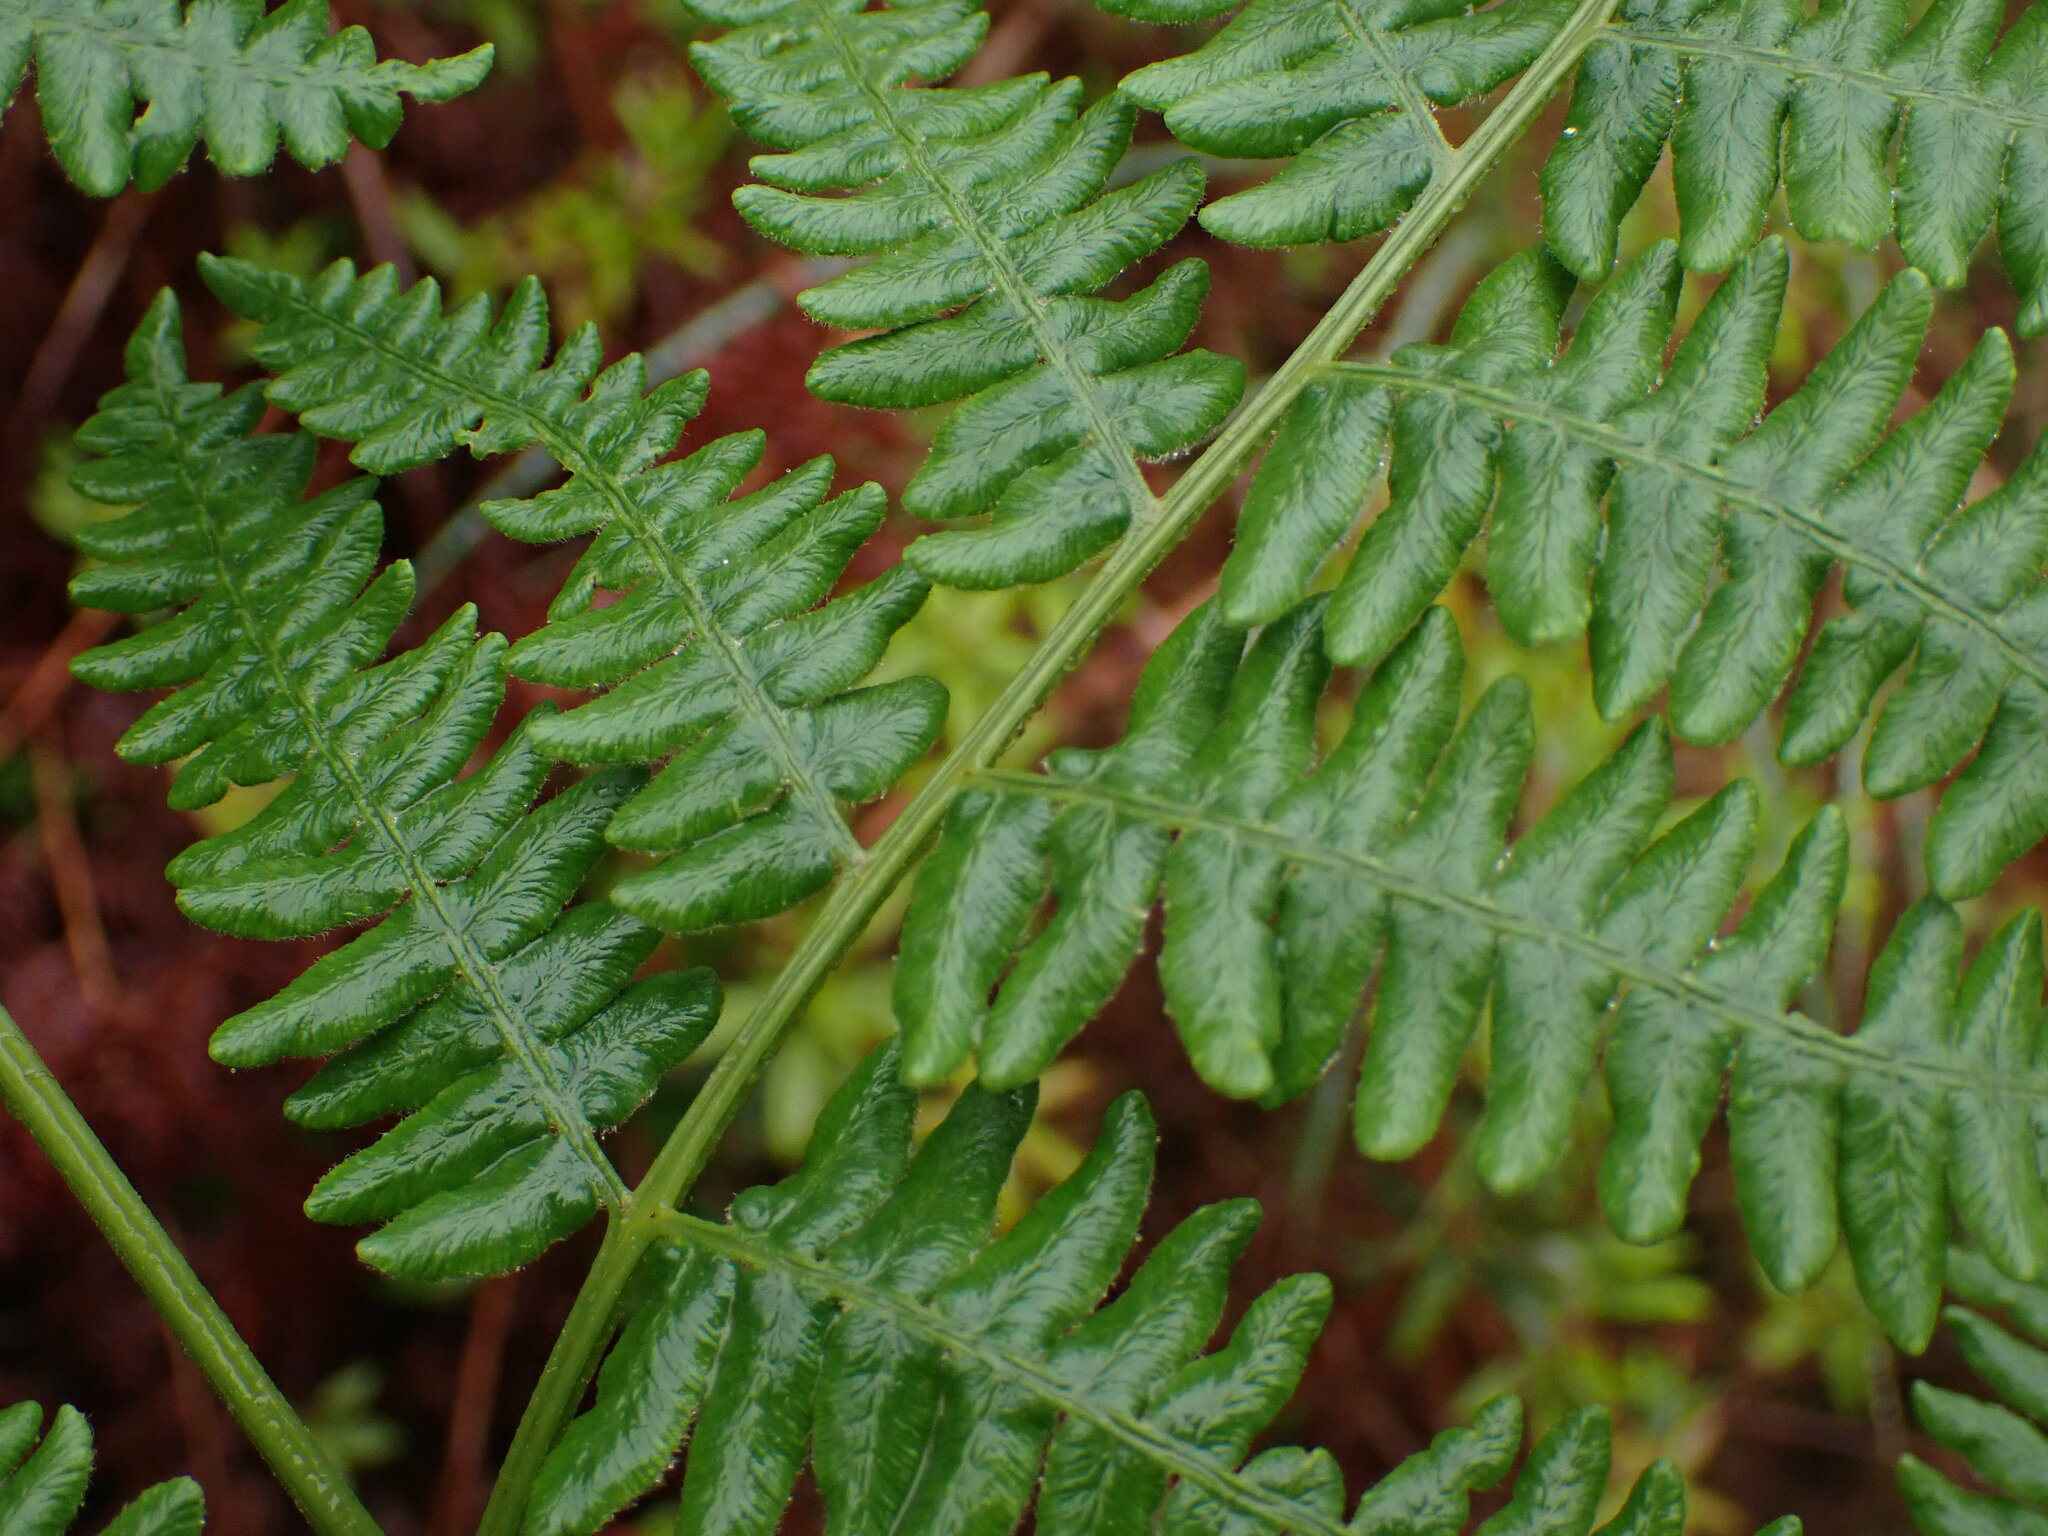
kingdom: Plantae
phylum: Tracheophyta
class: Polypodiopsida
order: Polypodiales
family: Dennstaedtiaceae
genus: Pteridium
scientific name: Pteridium aquilinum
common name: Bracken
